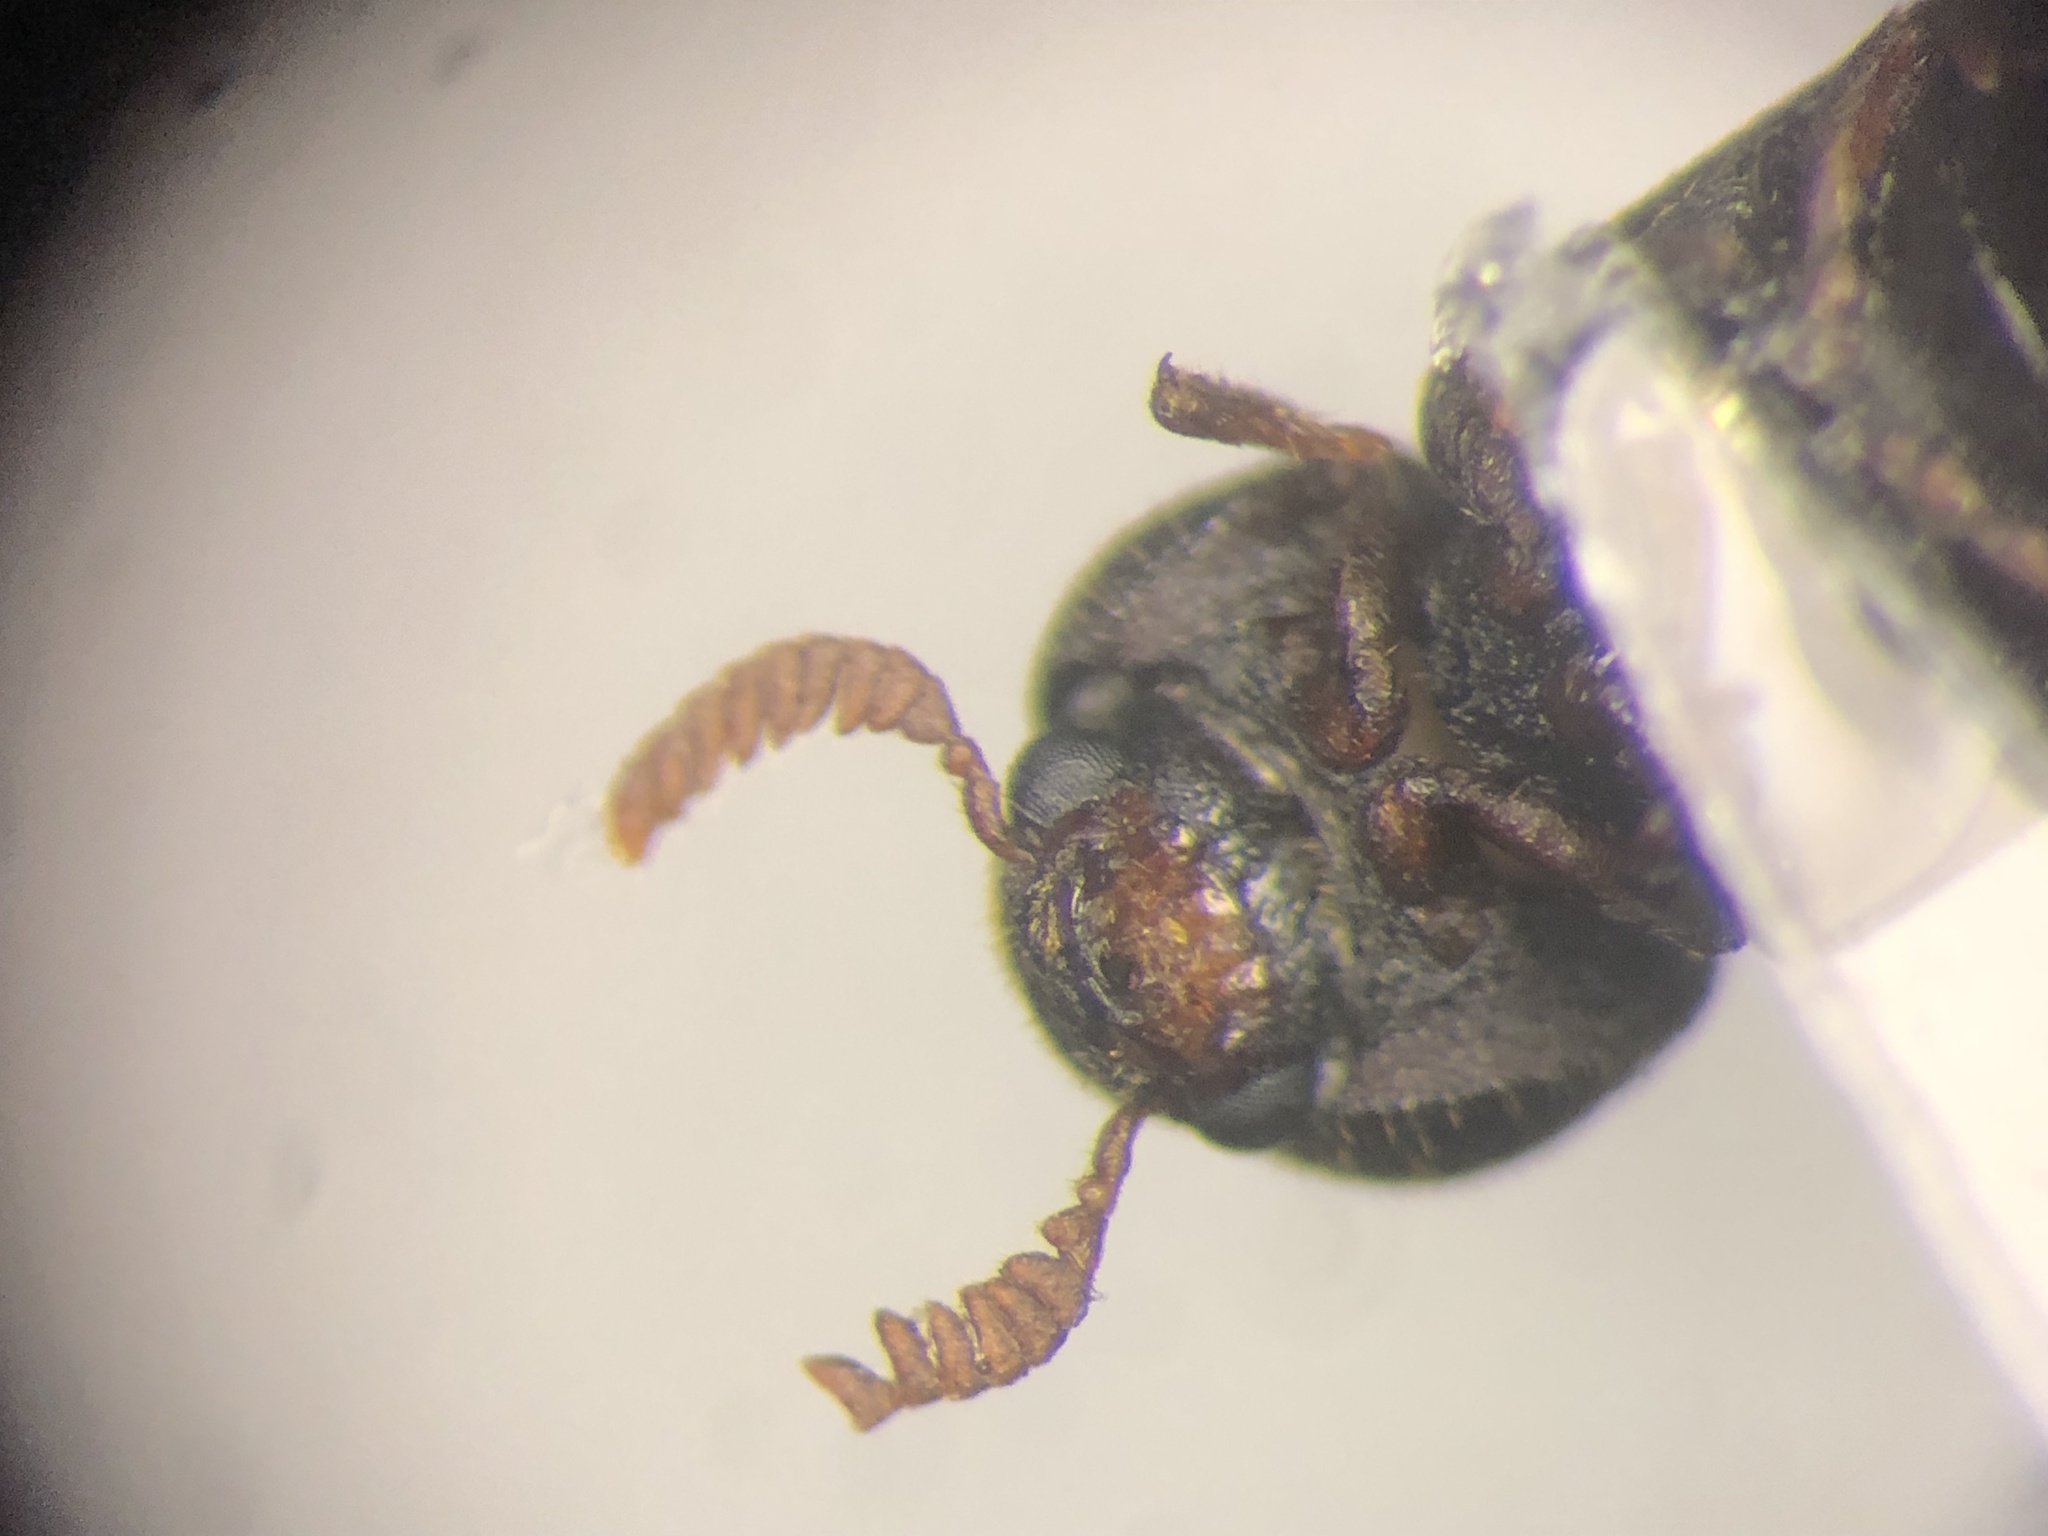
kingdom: Animalia
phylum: Arthropoda
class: Insecta
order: Coleoptera
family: Anobiidae
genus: Ptilinus
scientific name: Ptilinus lobatus
